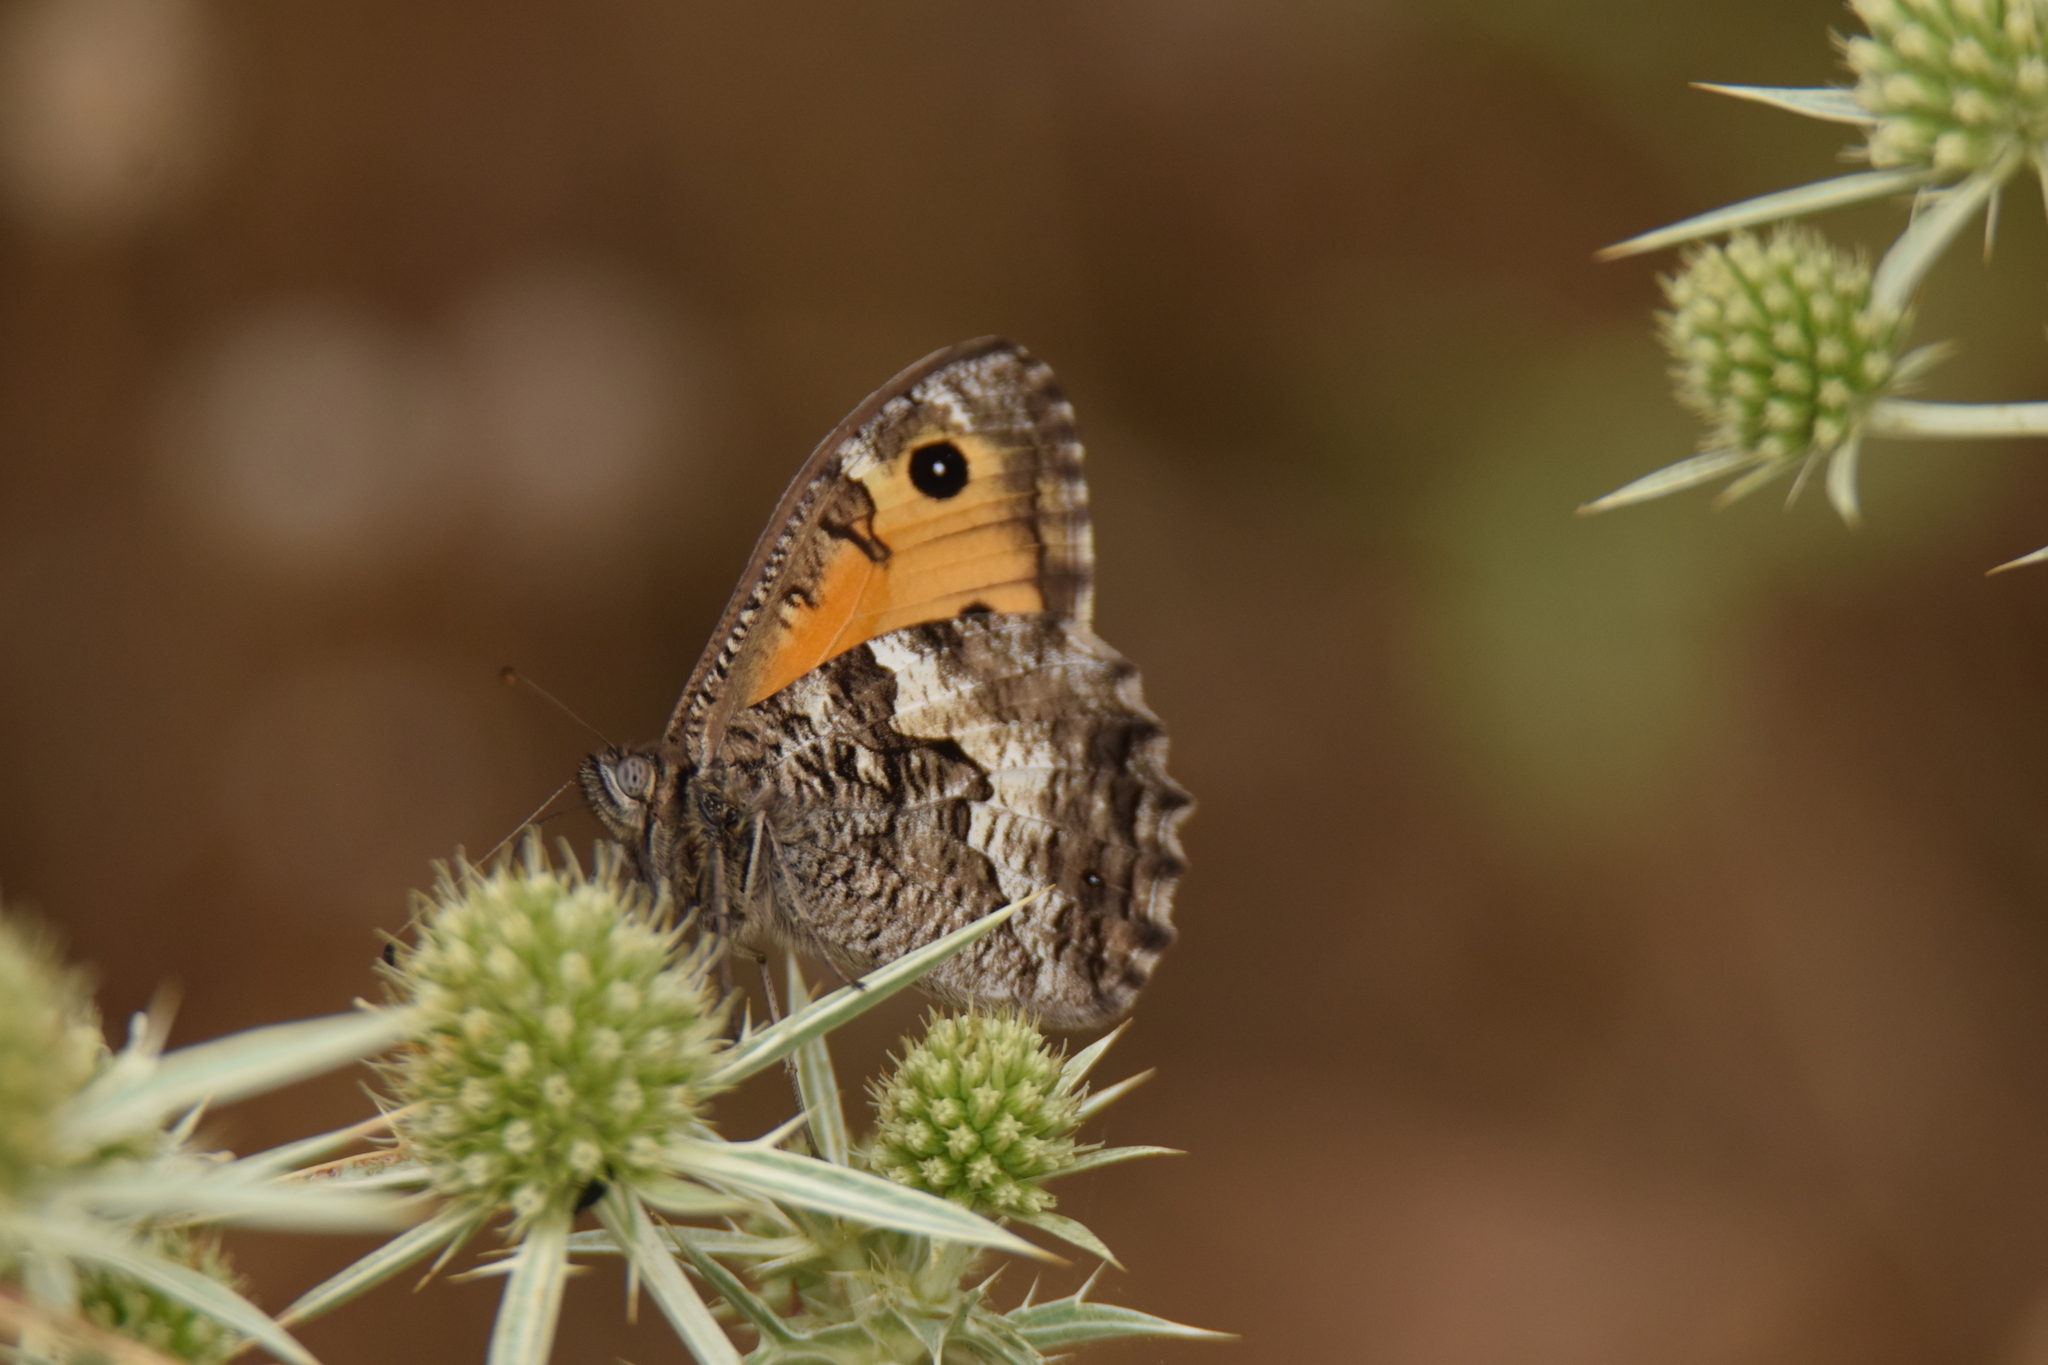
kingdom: Animalia
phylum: Arthropoda
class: Insecta
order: Lepidoptera
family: Nymphalidae
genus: Hipparchia
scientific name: Hipparchia semele
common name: Grayling
